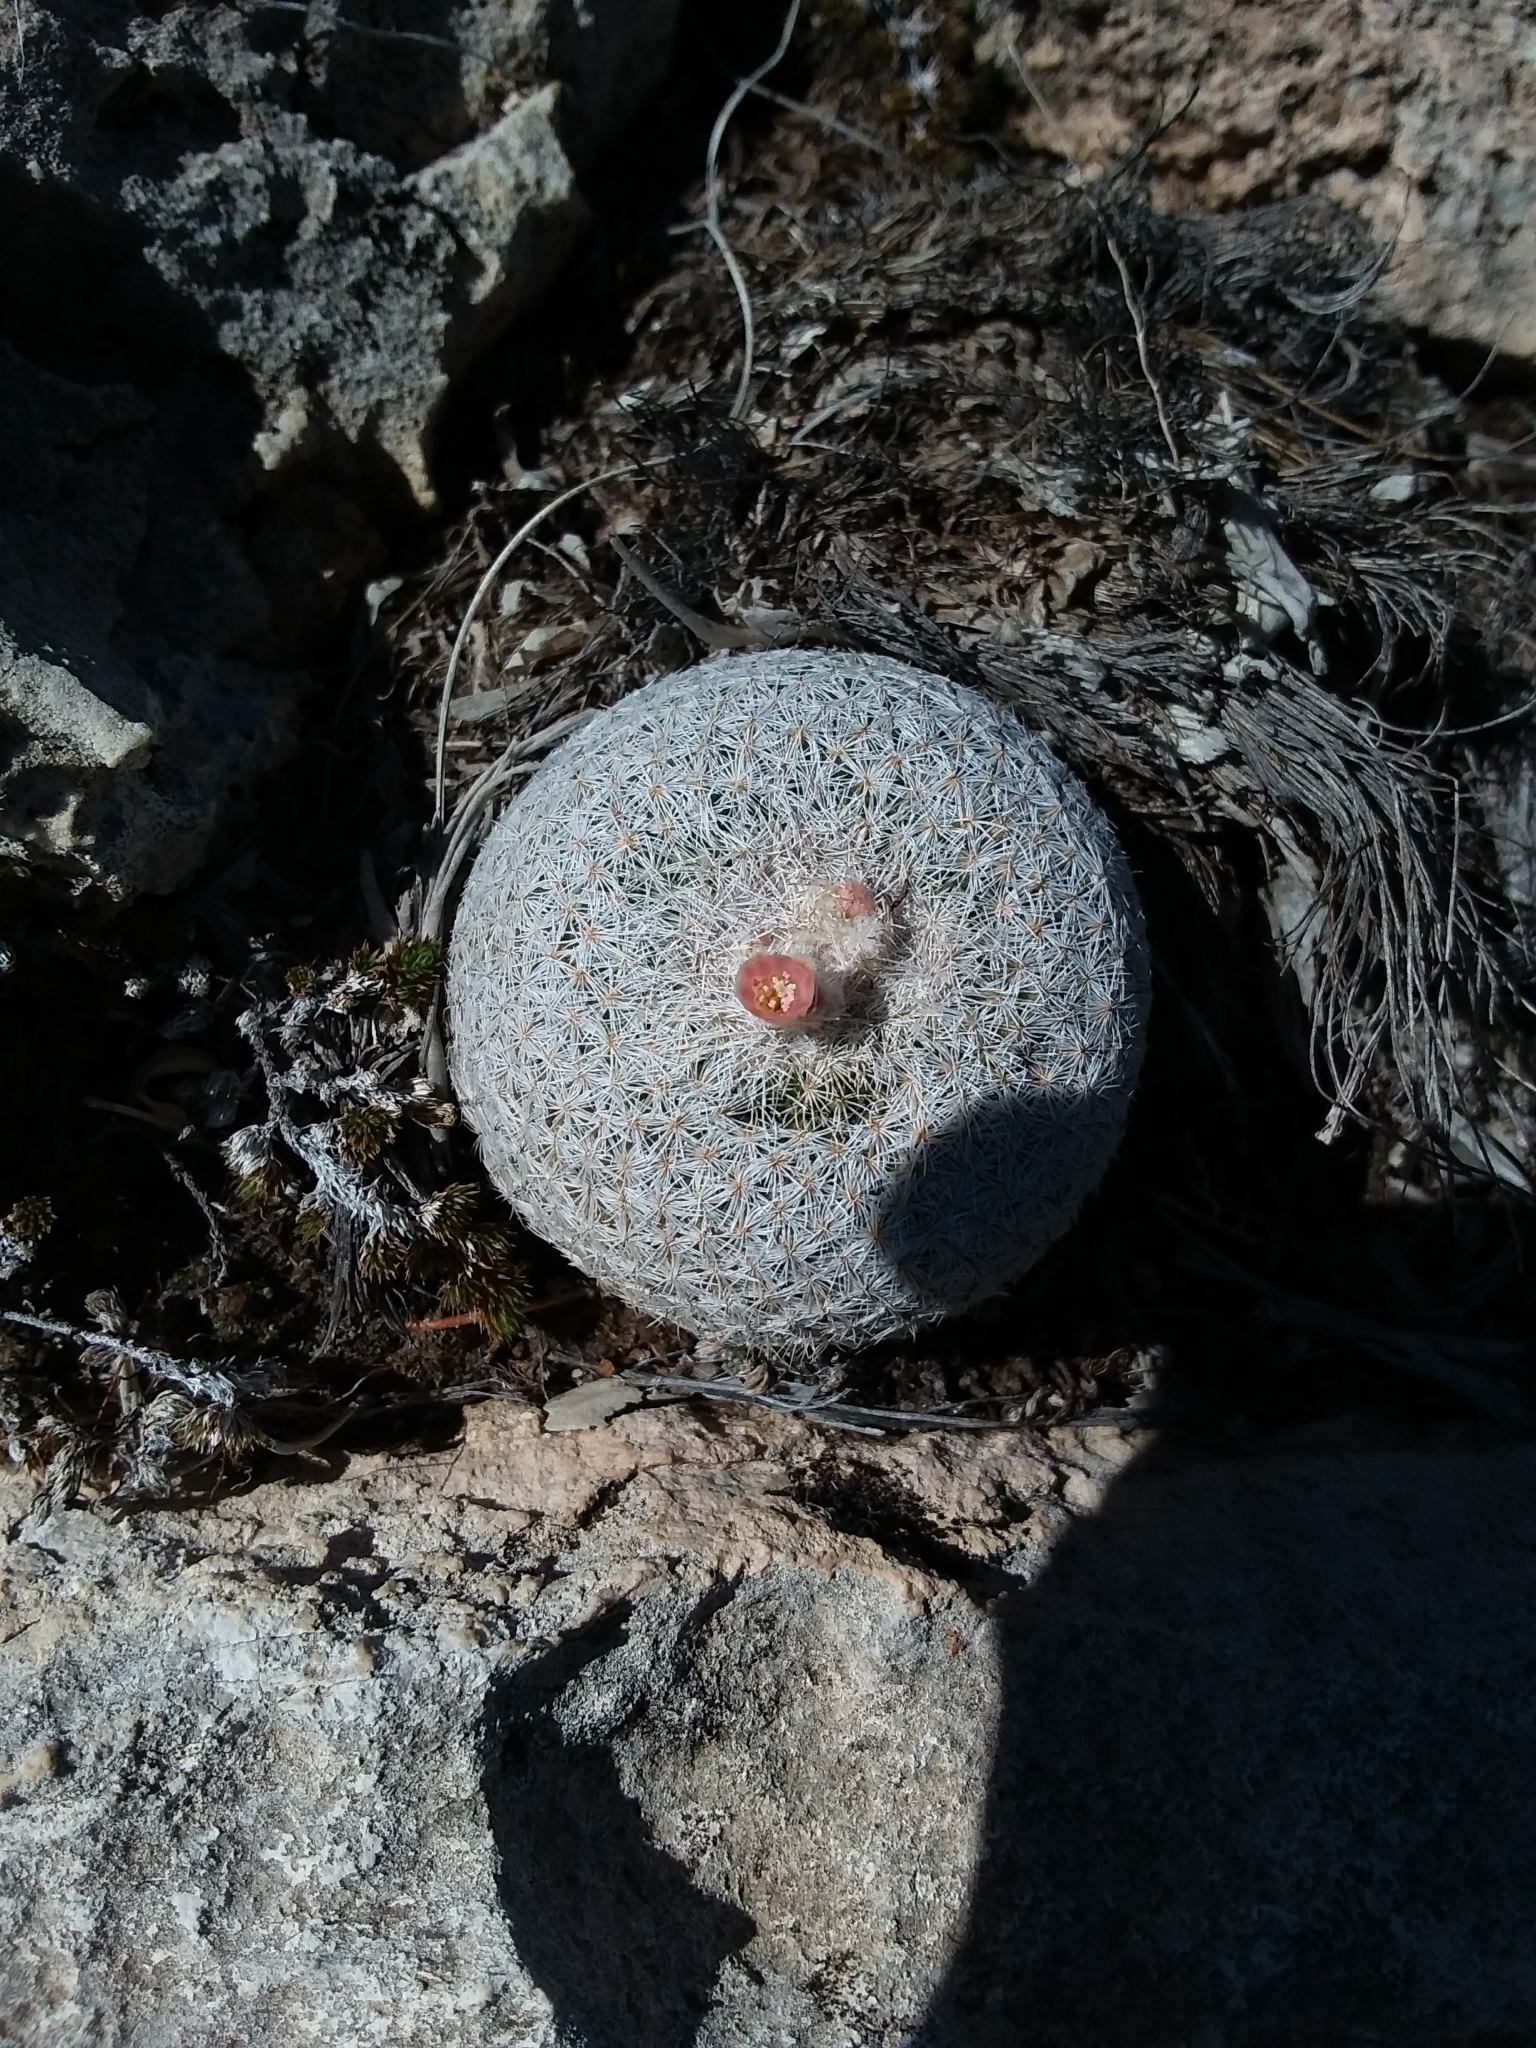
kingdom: Plantae
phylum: Tracheophyta
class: Magnoliopsida
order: Caryophyllales
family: Cactaceae
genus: Epithelantha
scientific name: Epithelantha micromeris
